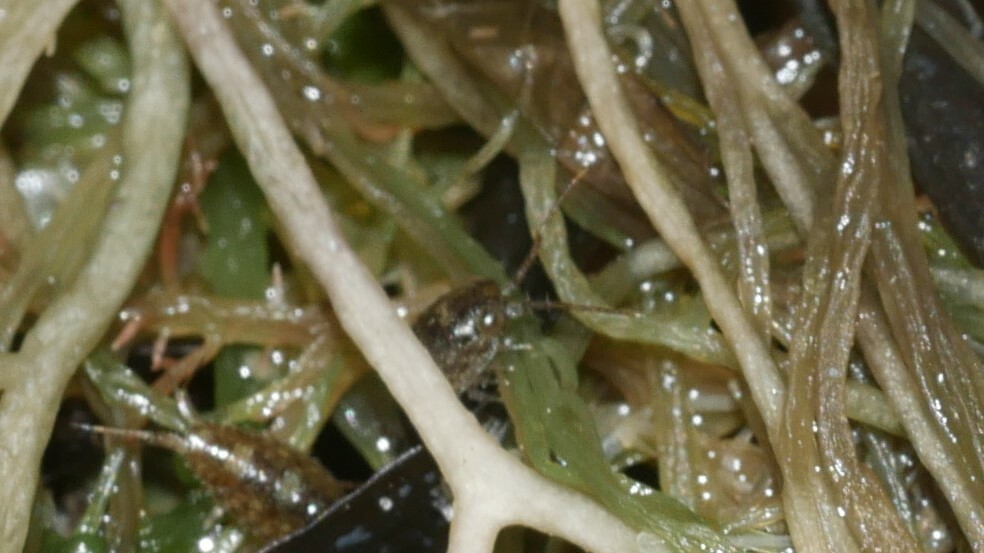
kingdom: Animalia
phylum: Arthropoda
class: Malacostraca
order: Isopoda
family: Ligiidae
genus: Ligia
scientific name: Ligia exotica
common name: Wharf roach
